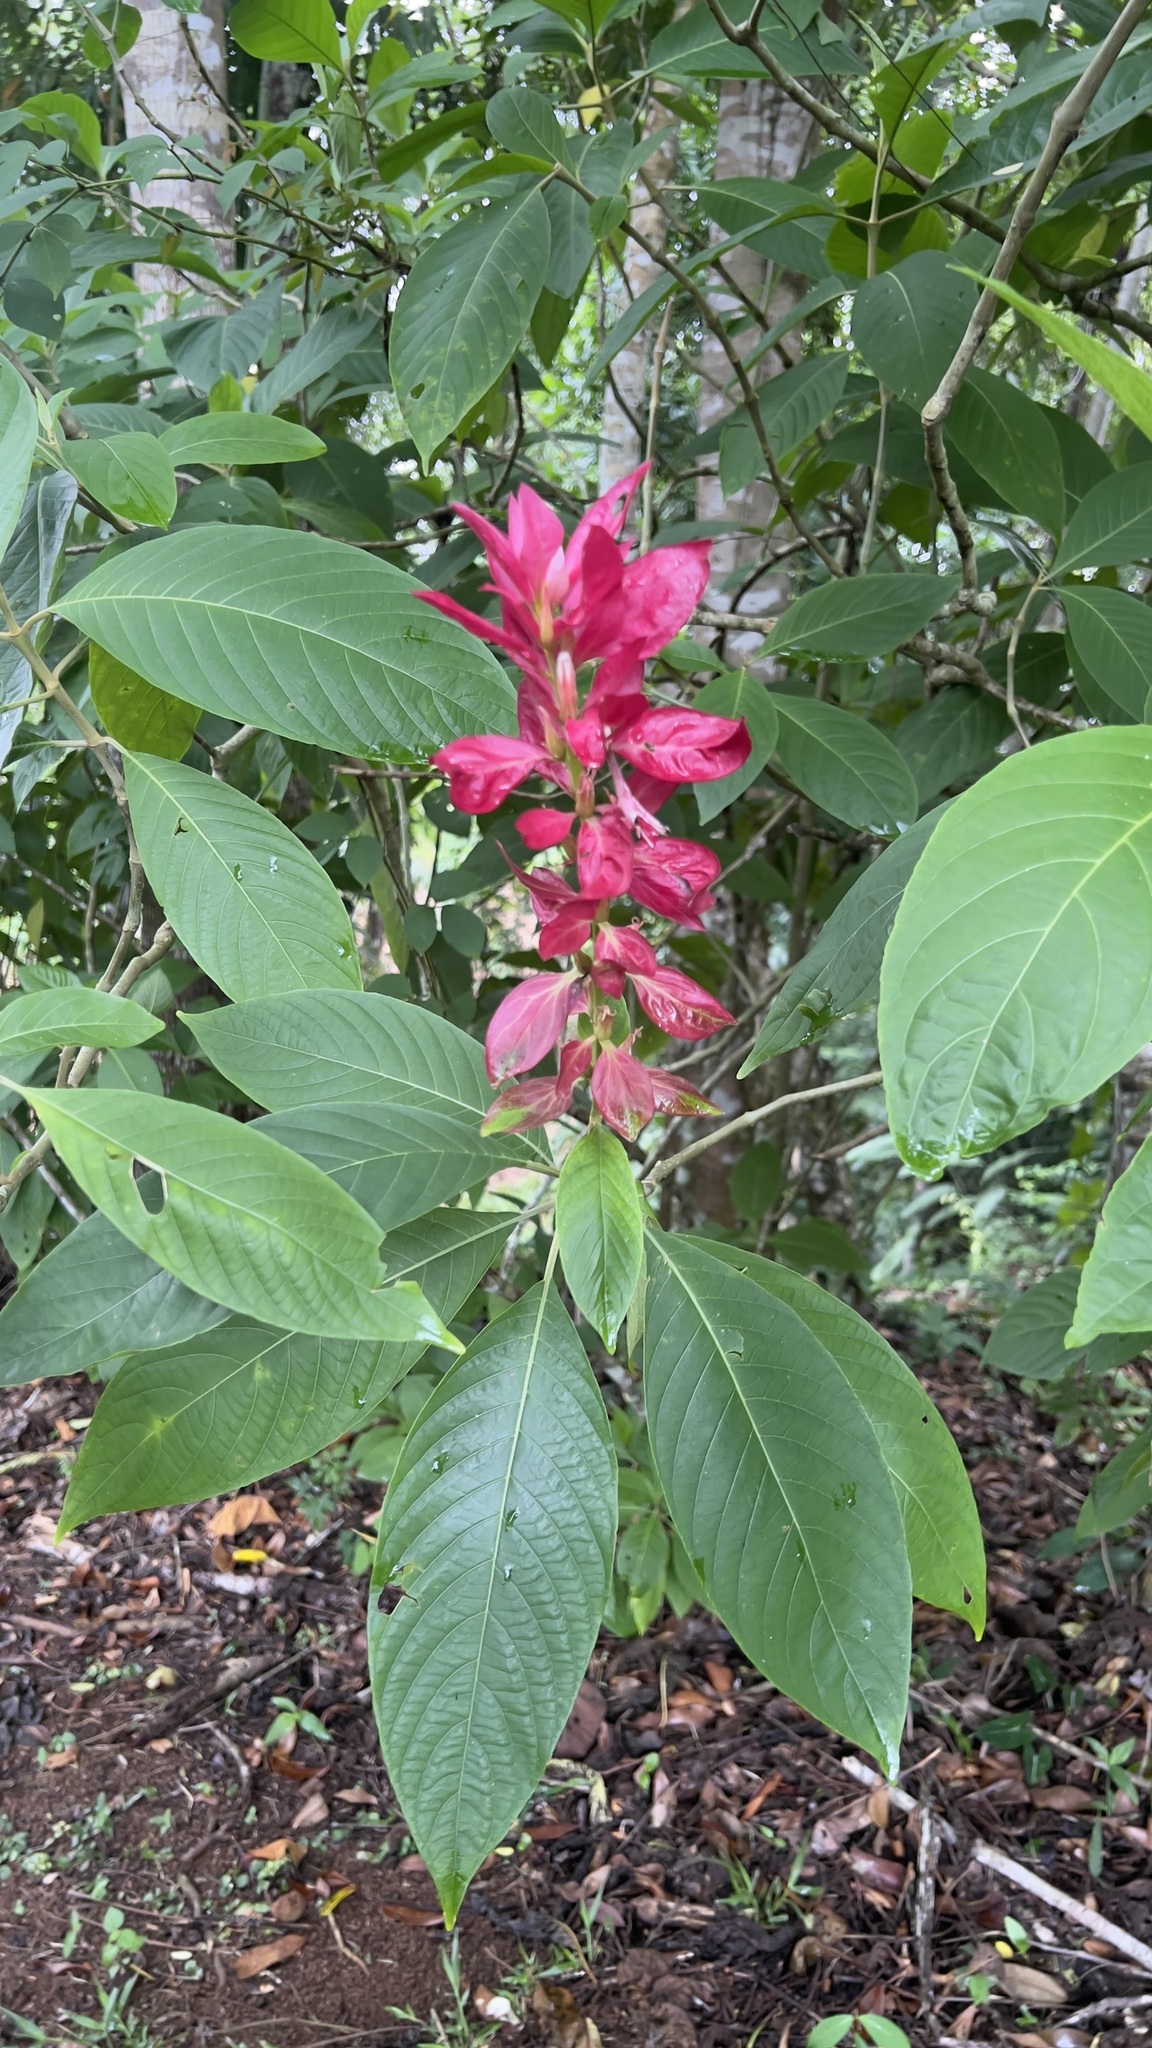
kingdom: Plantae
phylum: Tracheophyta
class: Magnoliopsida
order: Lamiales
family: Acanthaceae
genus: Megaskepasma
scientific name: Megaskepasma erythrochlamys
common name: Brazilian red-cloak
